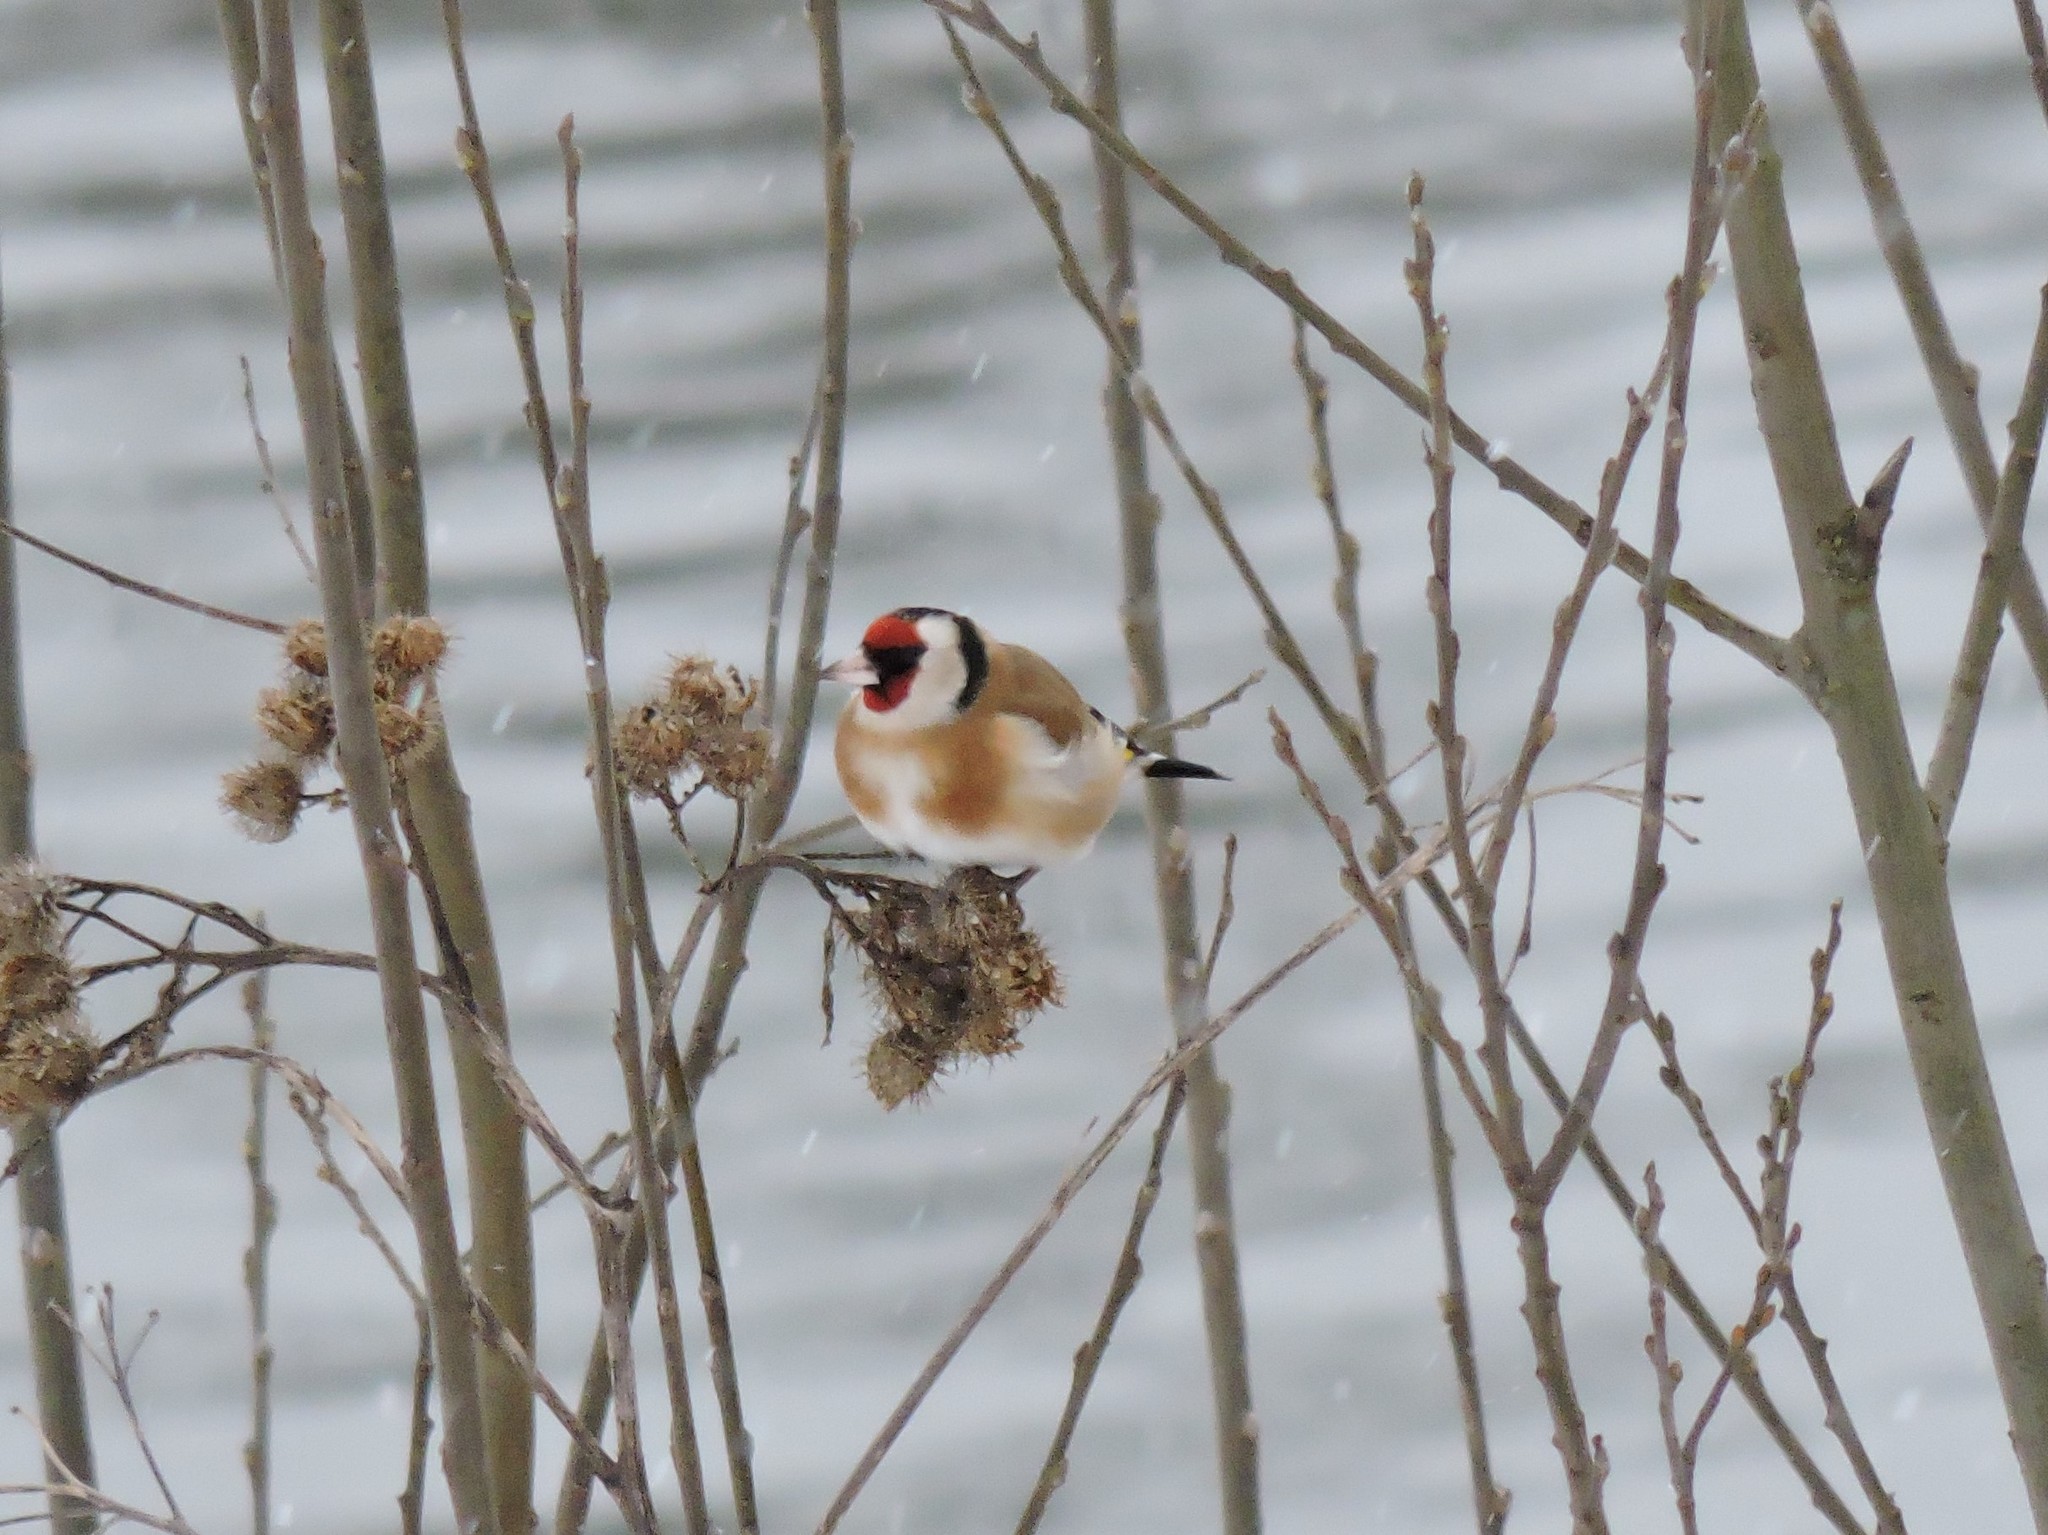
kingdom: Animalia
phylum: Chordata
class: Aves
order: Passeriformes
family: Fringillidae
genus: Carduelis
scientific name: Carduelis carduelis
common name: European goldfinch
